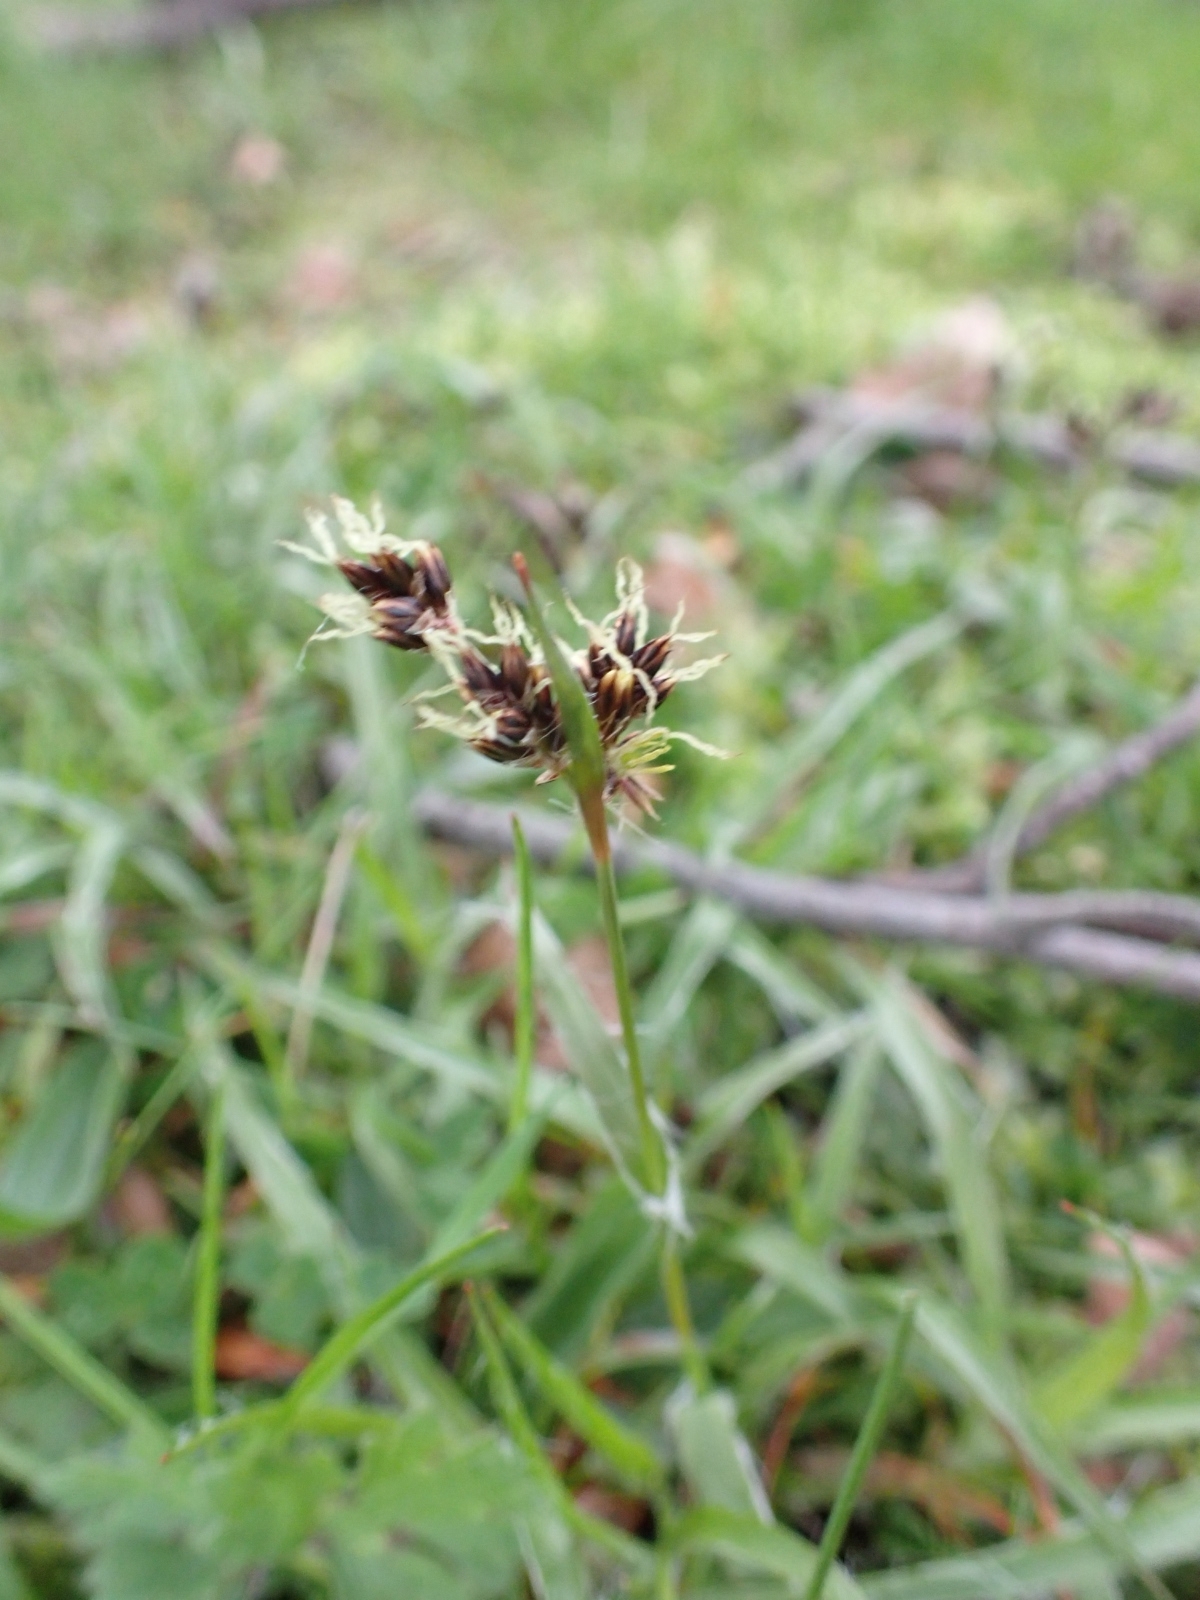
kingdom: Plantae
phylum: Tracheophyta
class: Liliopsida
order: Poales
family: Juncaceae
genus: Luzula
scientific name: Luzula campestris
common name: Field wood-rush
